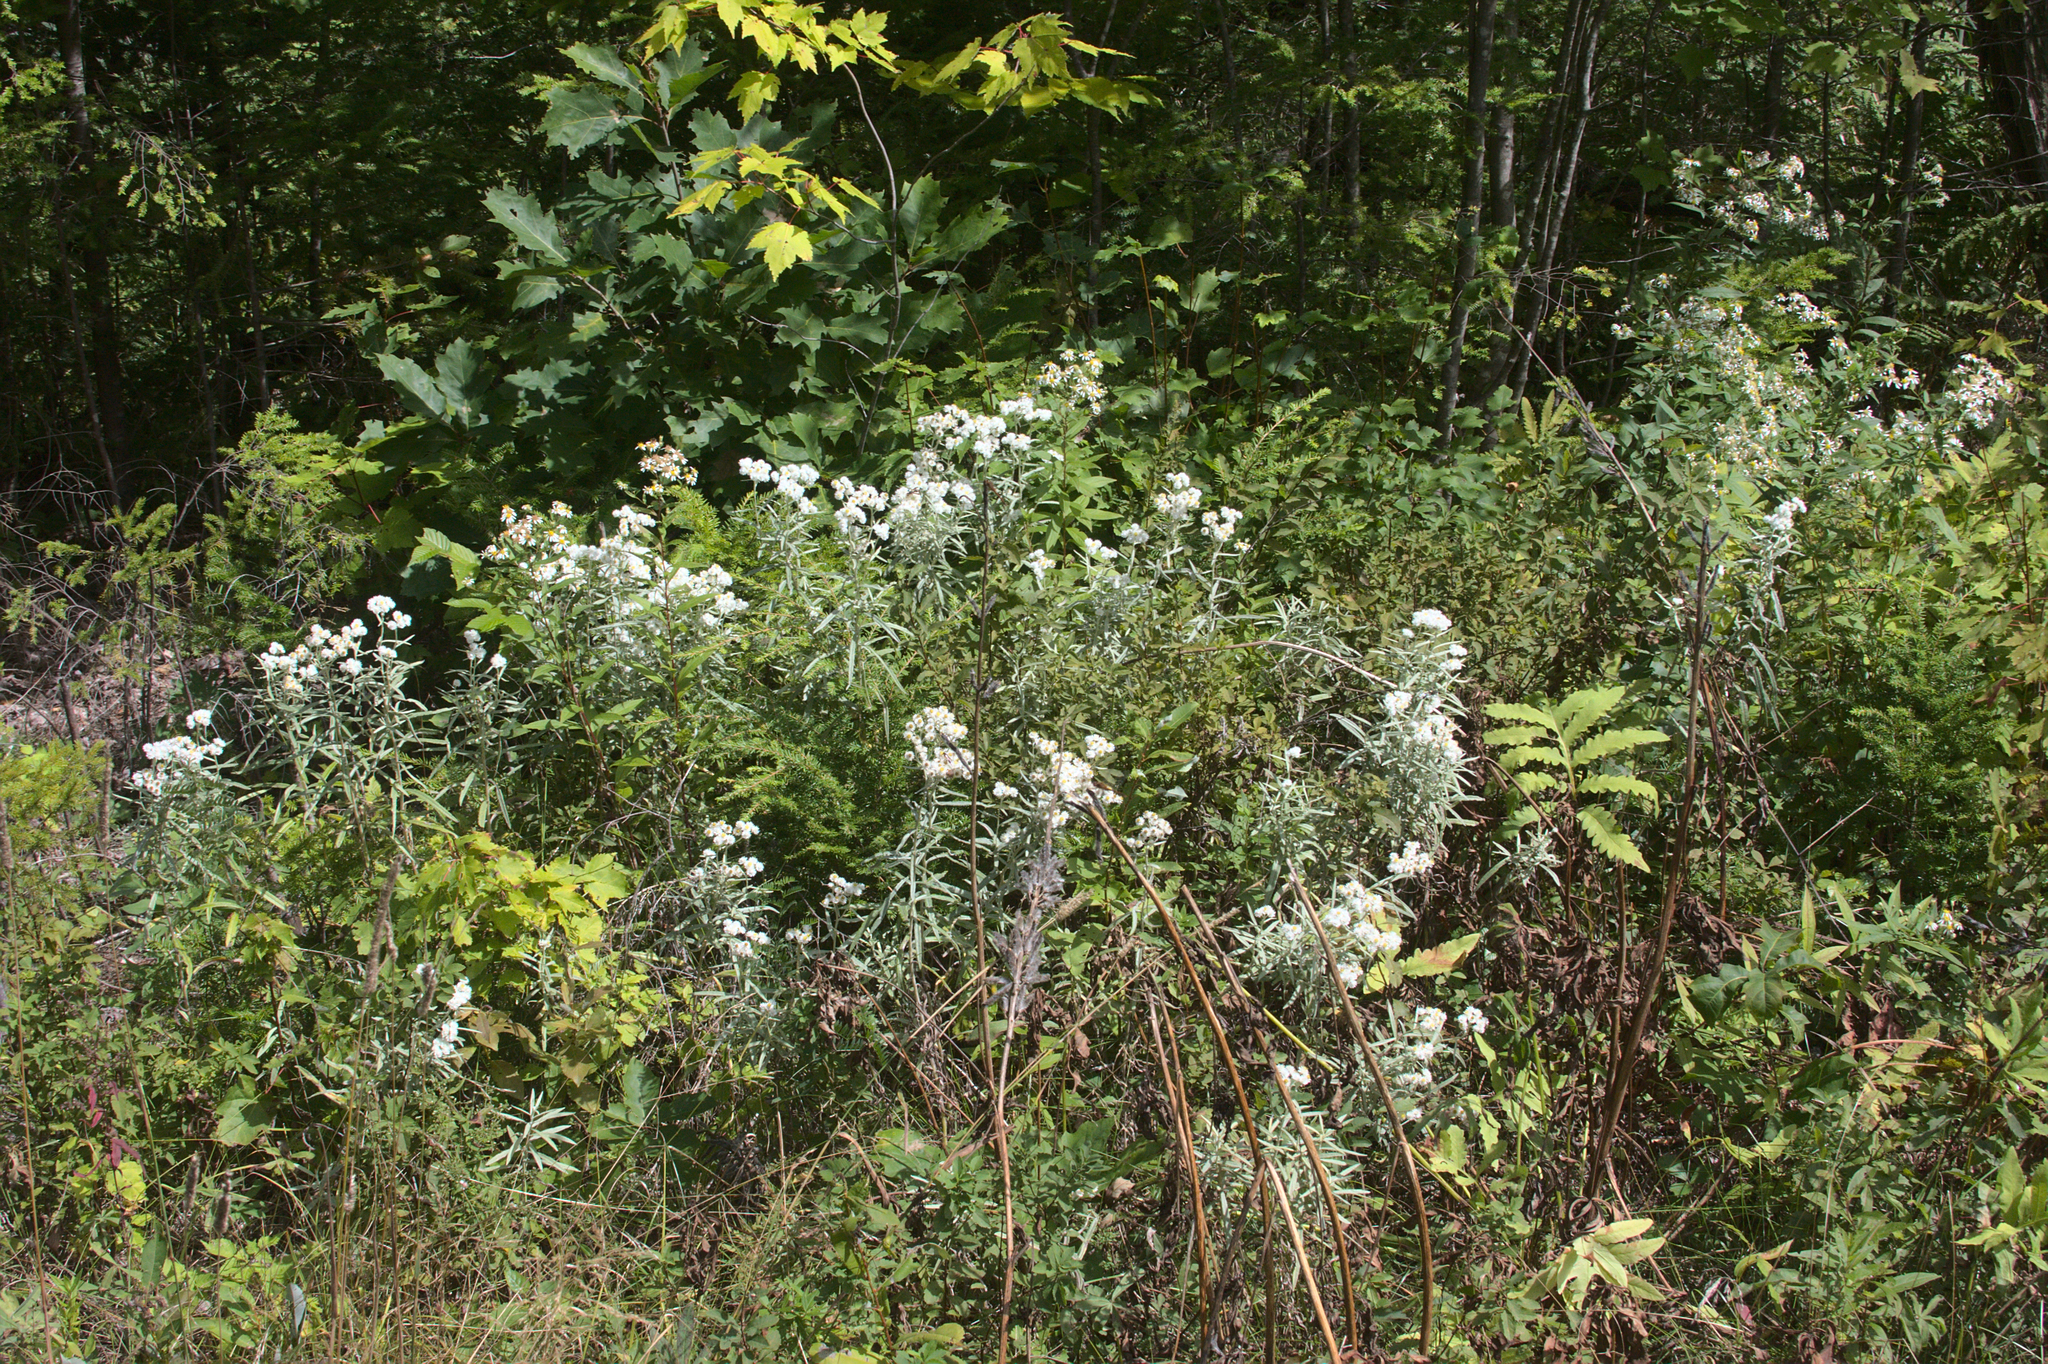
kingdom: Plantae
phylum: Tracheophyta
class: Magnoliopsida
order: Asterales
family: Asteraceae
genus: Anaphalis
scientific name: Anaphalis margaritacea
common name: Pearly everlasting
